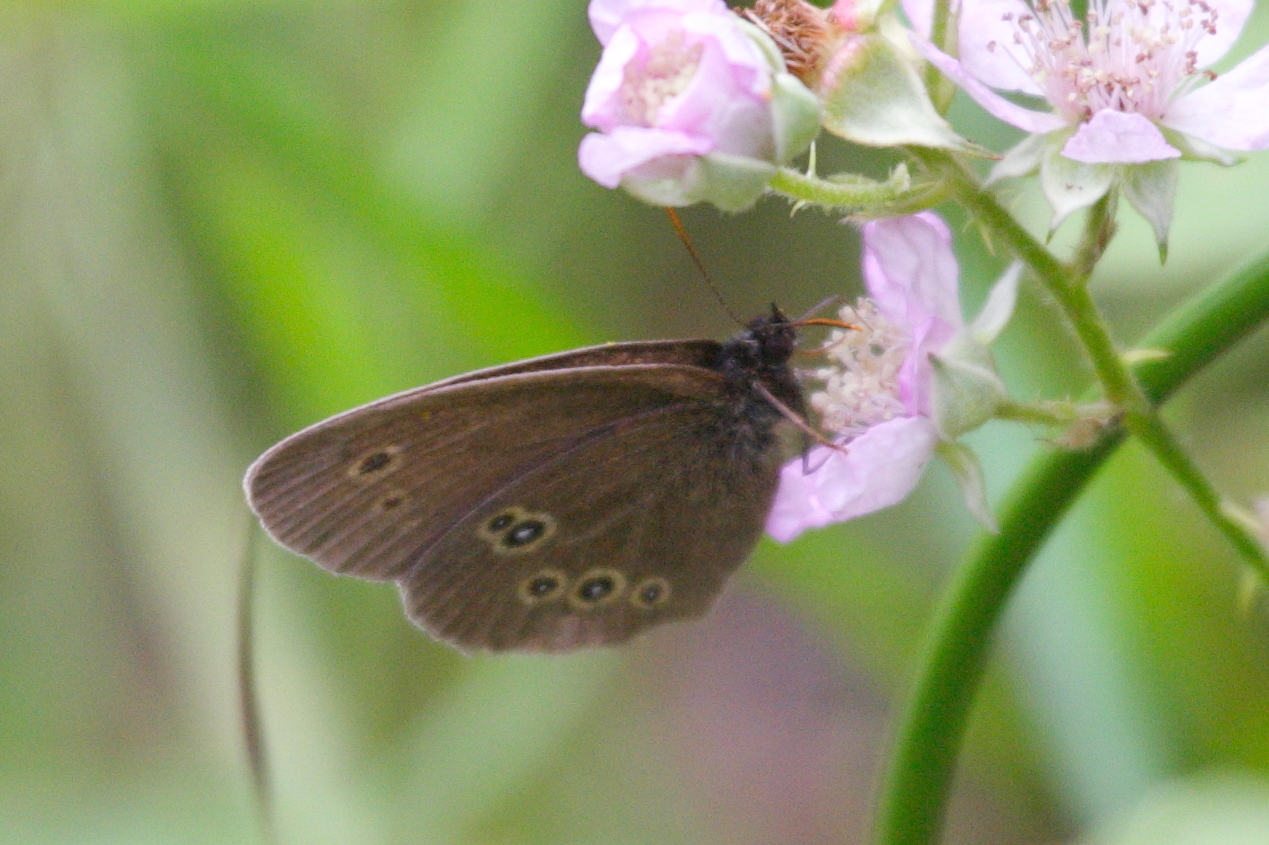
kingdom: Animalia
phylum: Arthropoda
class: Insecta
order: Lepidoptera
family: Nymphalidae
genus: Aphantopus
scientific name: Aphantopus hyperantus
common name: Ringlet
